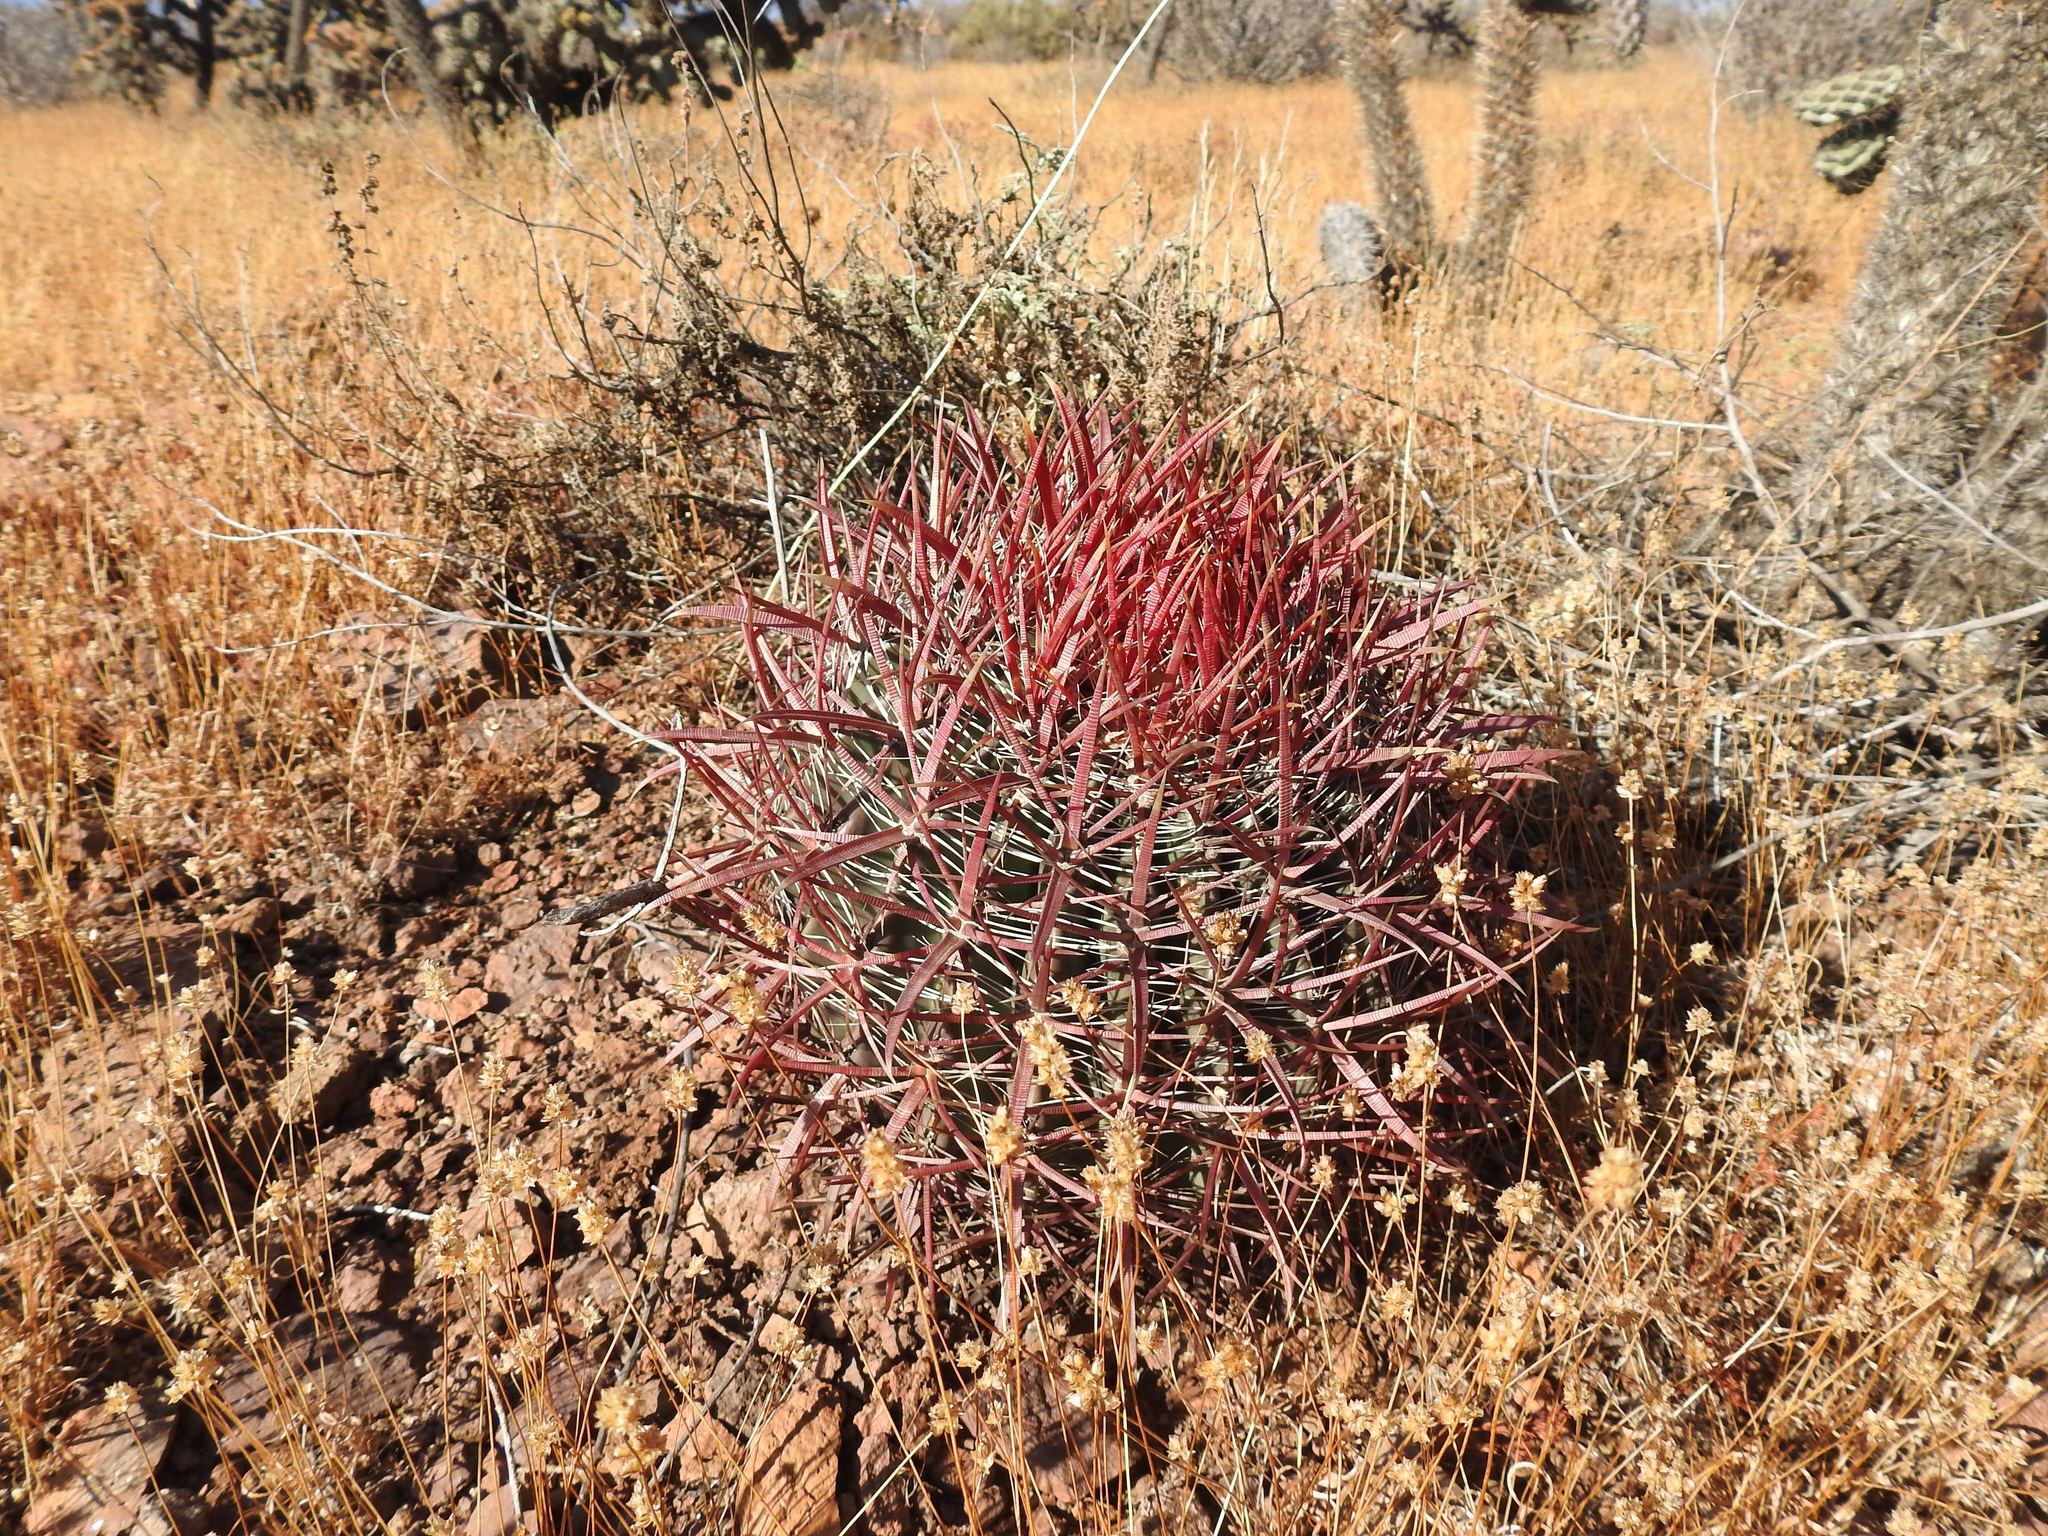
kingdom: Plantae
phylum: Tracheophyta
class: Magnoliopsida
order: Caryophyllales
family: Cactaceae
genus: Ferocactus
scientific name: Ferocactus gracilis
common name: Fire barrel cactus
